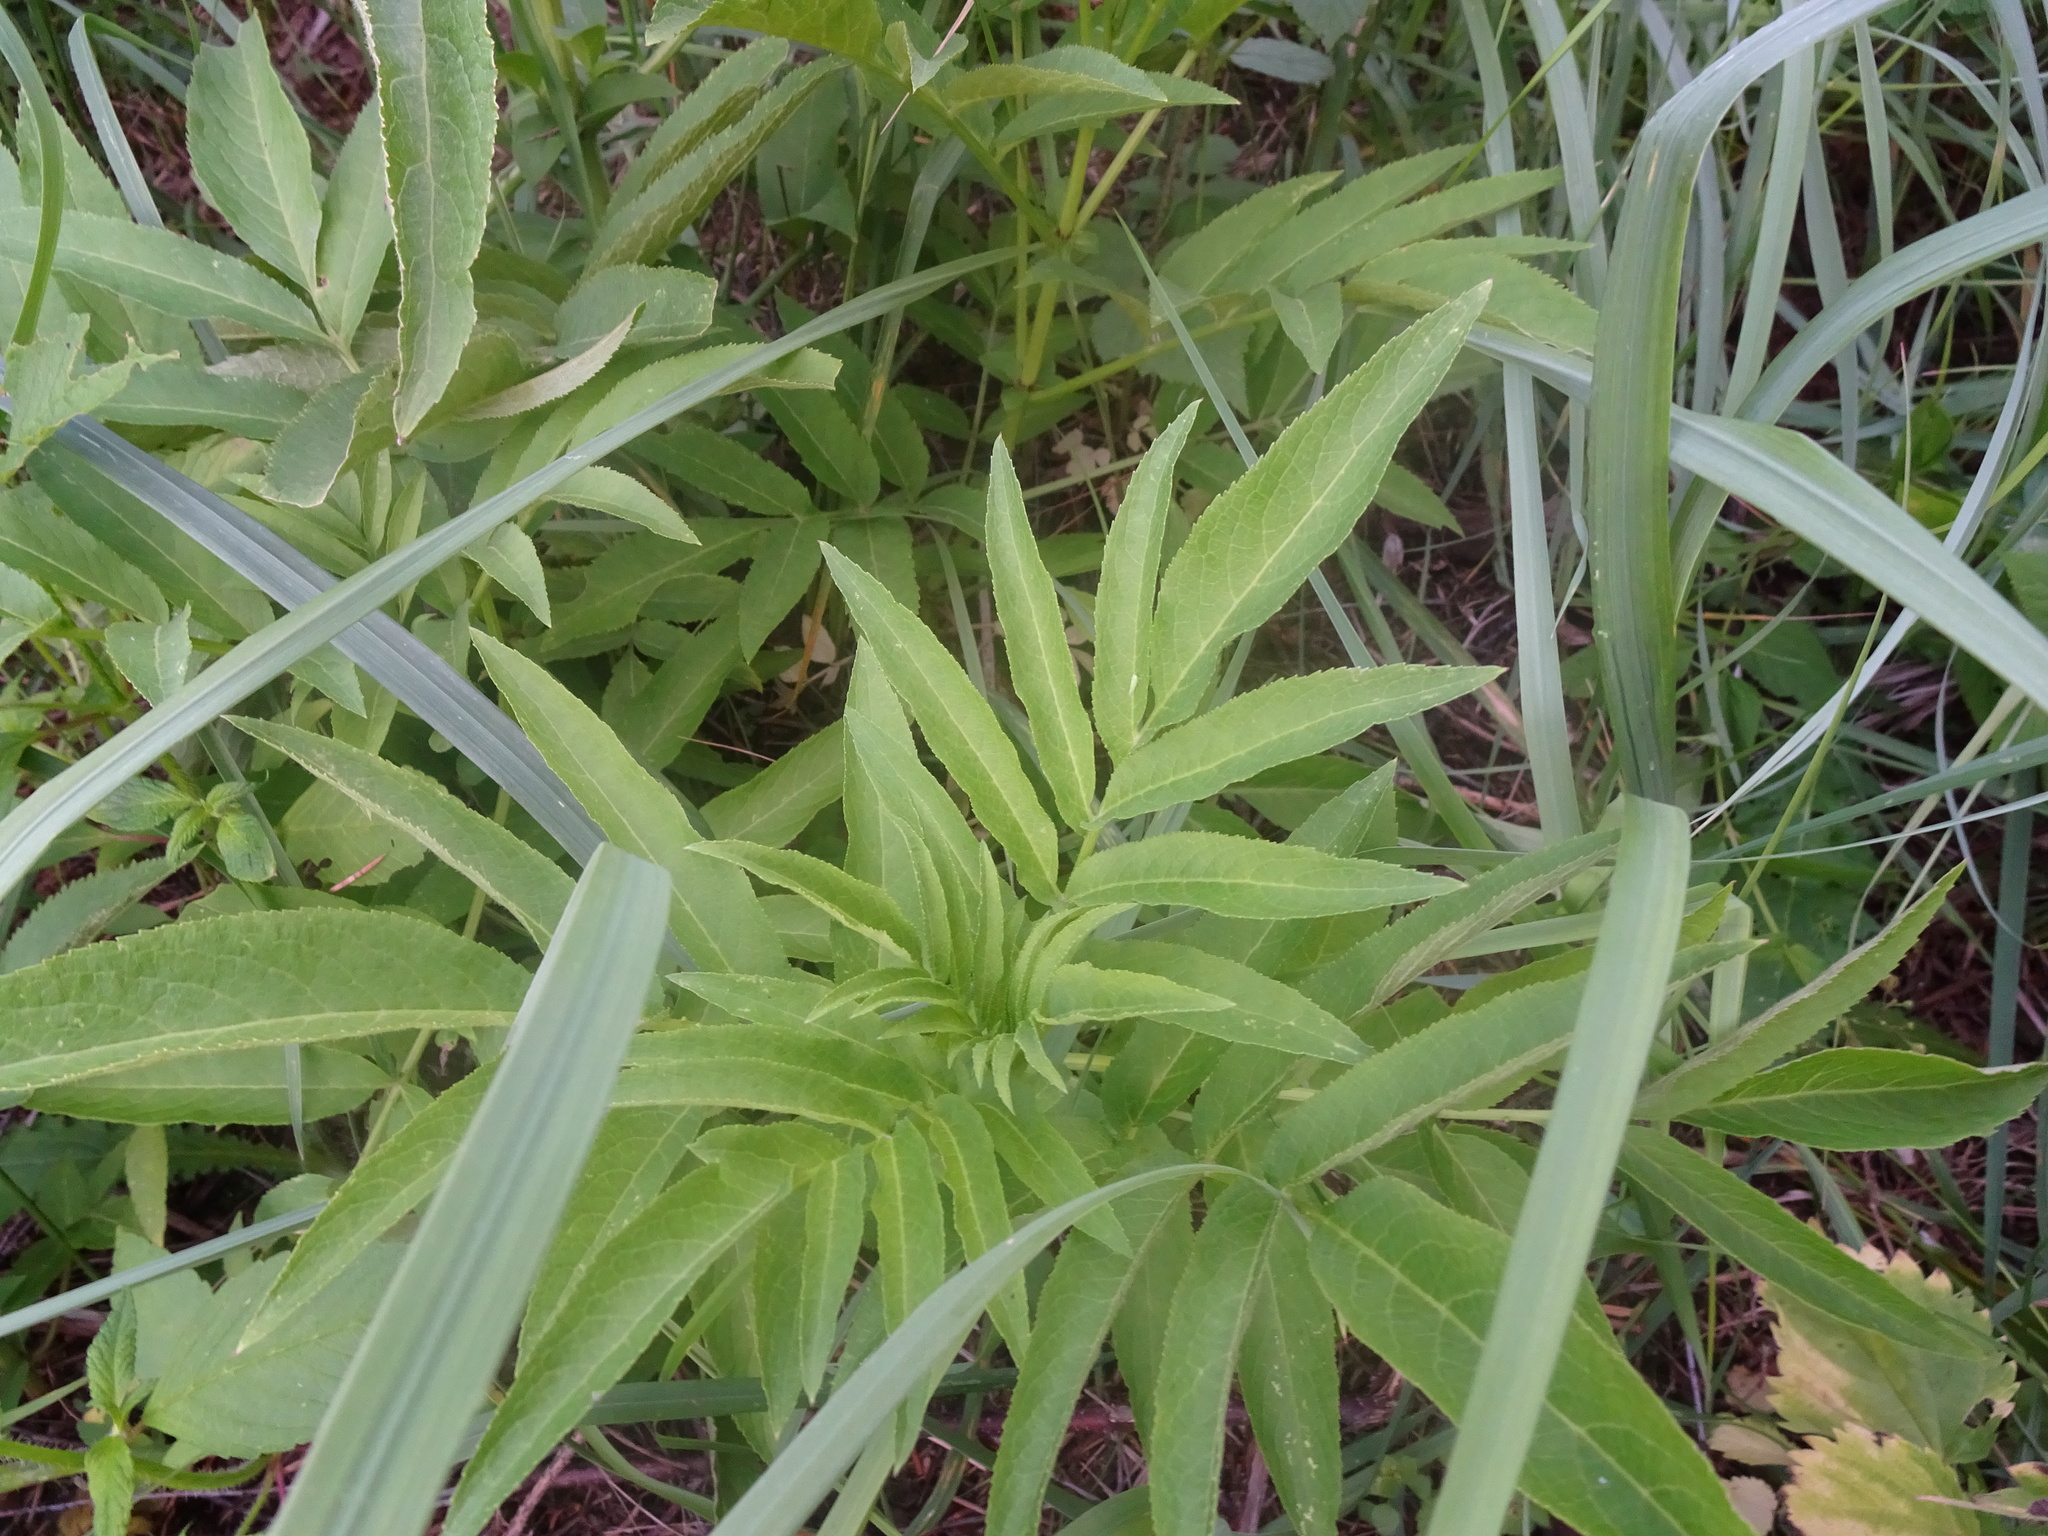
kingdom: Plantae
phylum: Tracheophyta
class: Magnoliopsida
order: Dipsacales
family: Viburnaceae
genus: Sambucus
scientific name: Sambucus ebulus
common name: Dwarf elder
